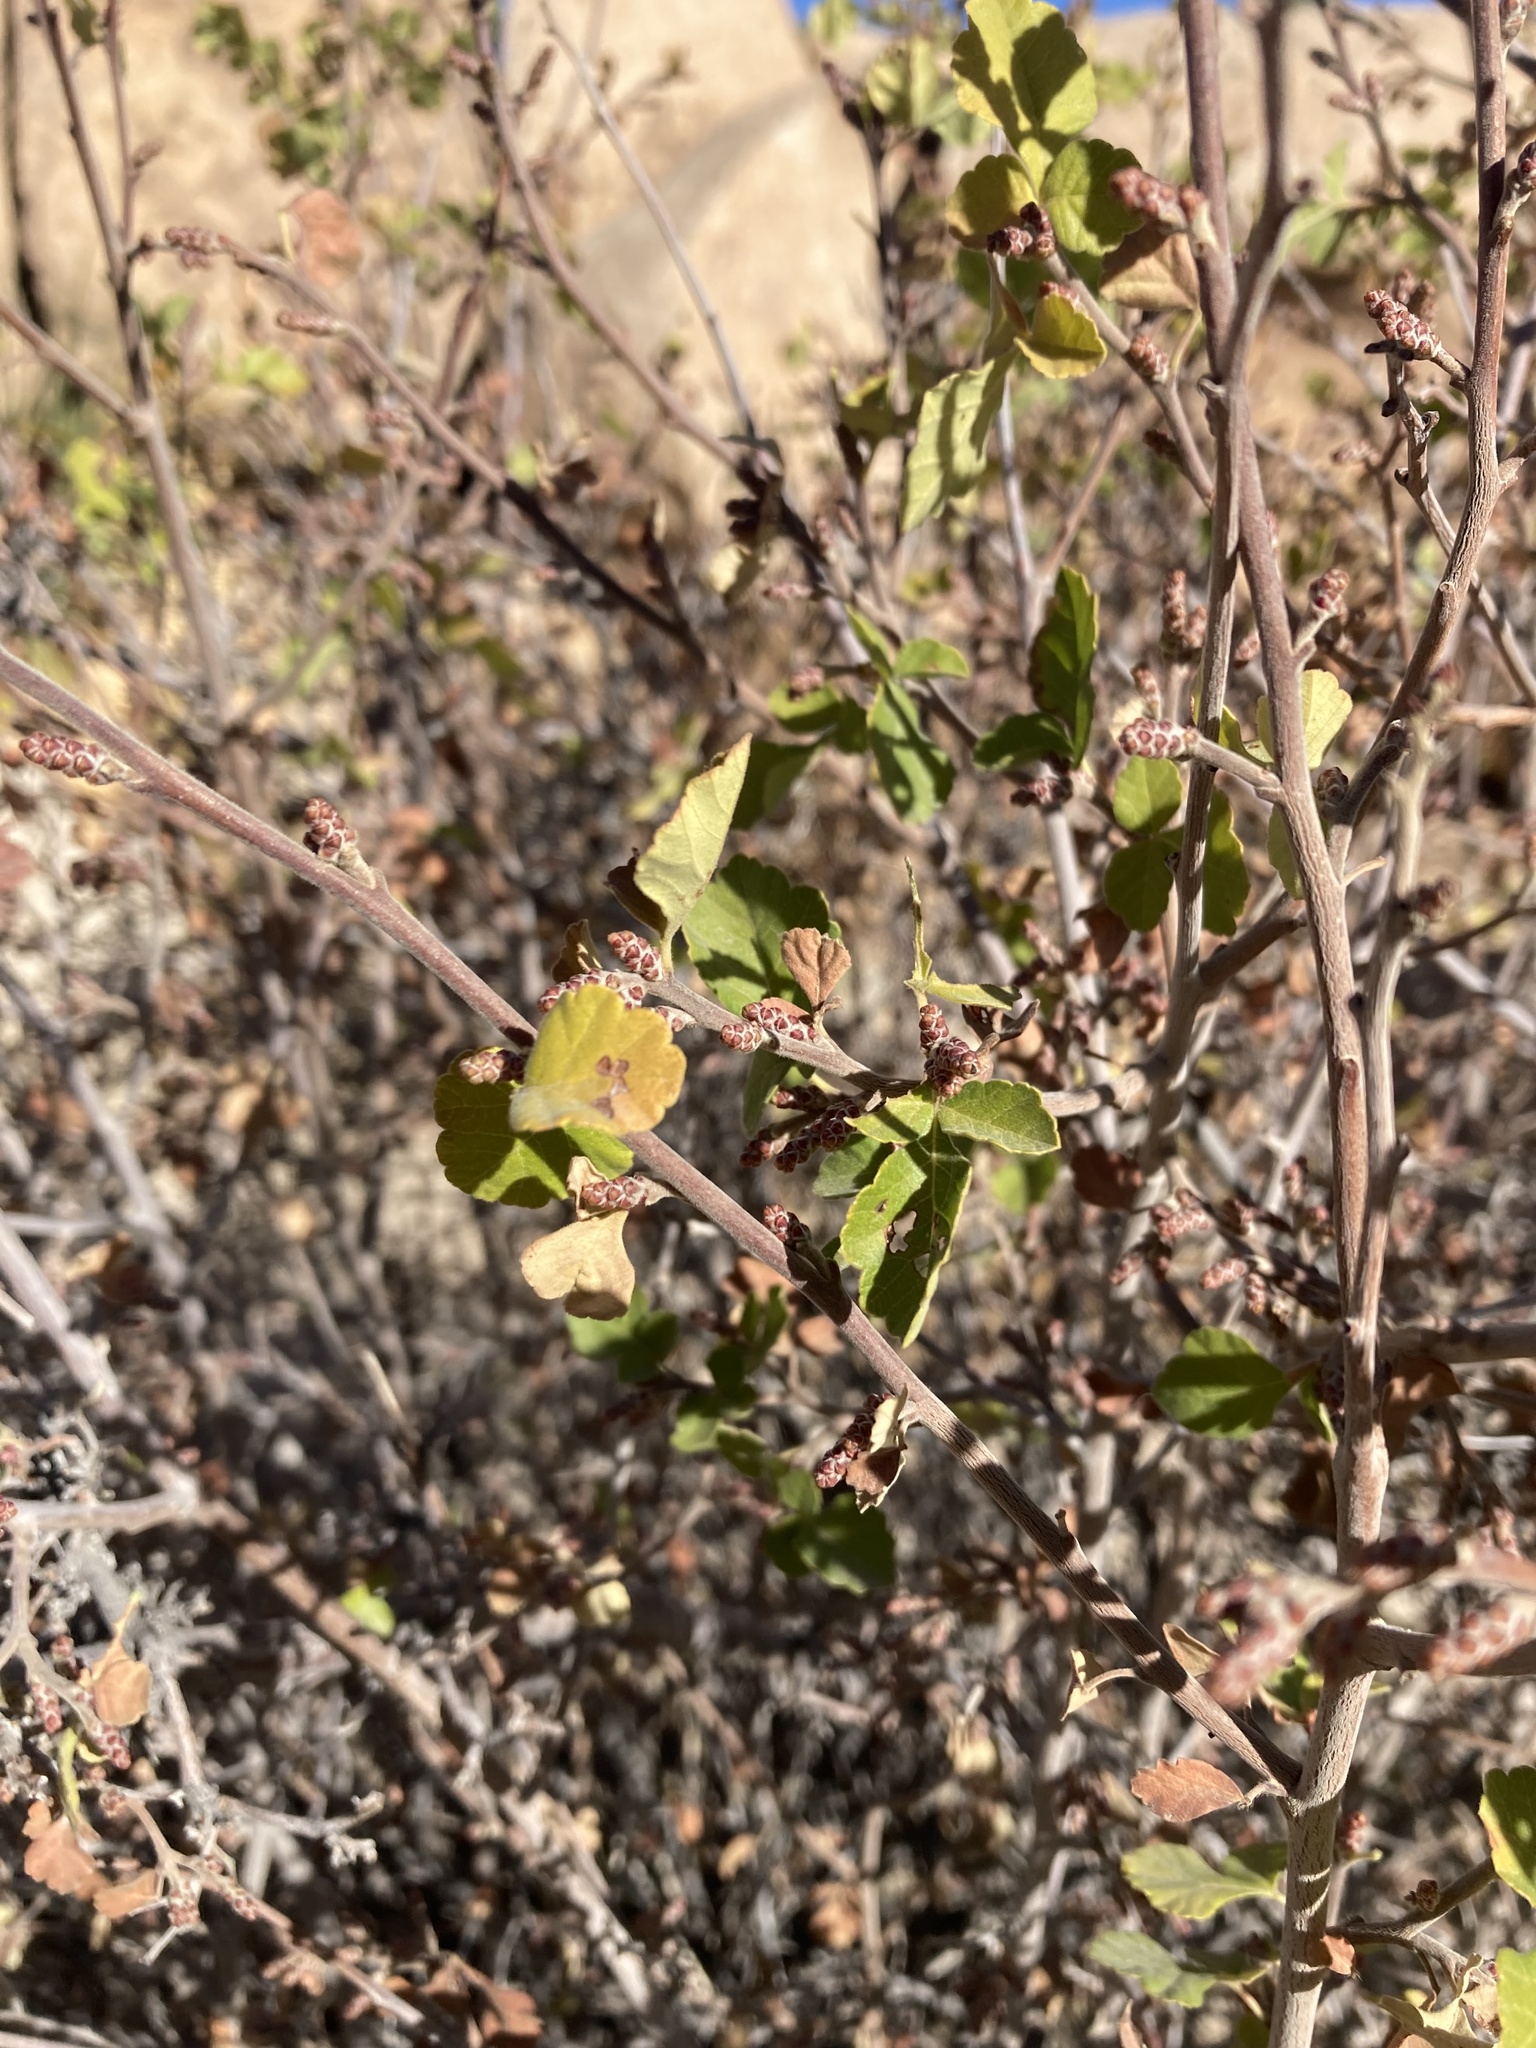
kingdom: Plantae
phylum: Tracheophyta
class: Magnoliopsida
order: Sapindales
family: Anacardiaceae
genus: Rhus
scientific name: Rhus aromatica
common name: Aromatic sumac
